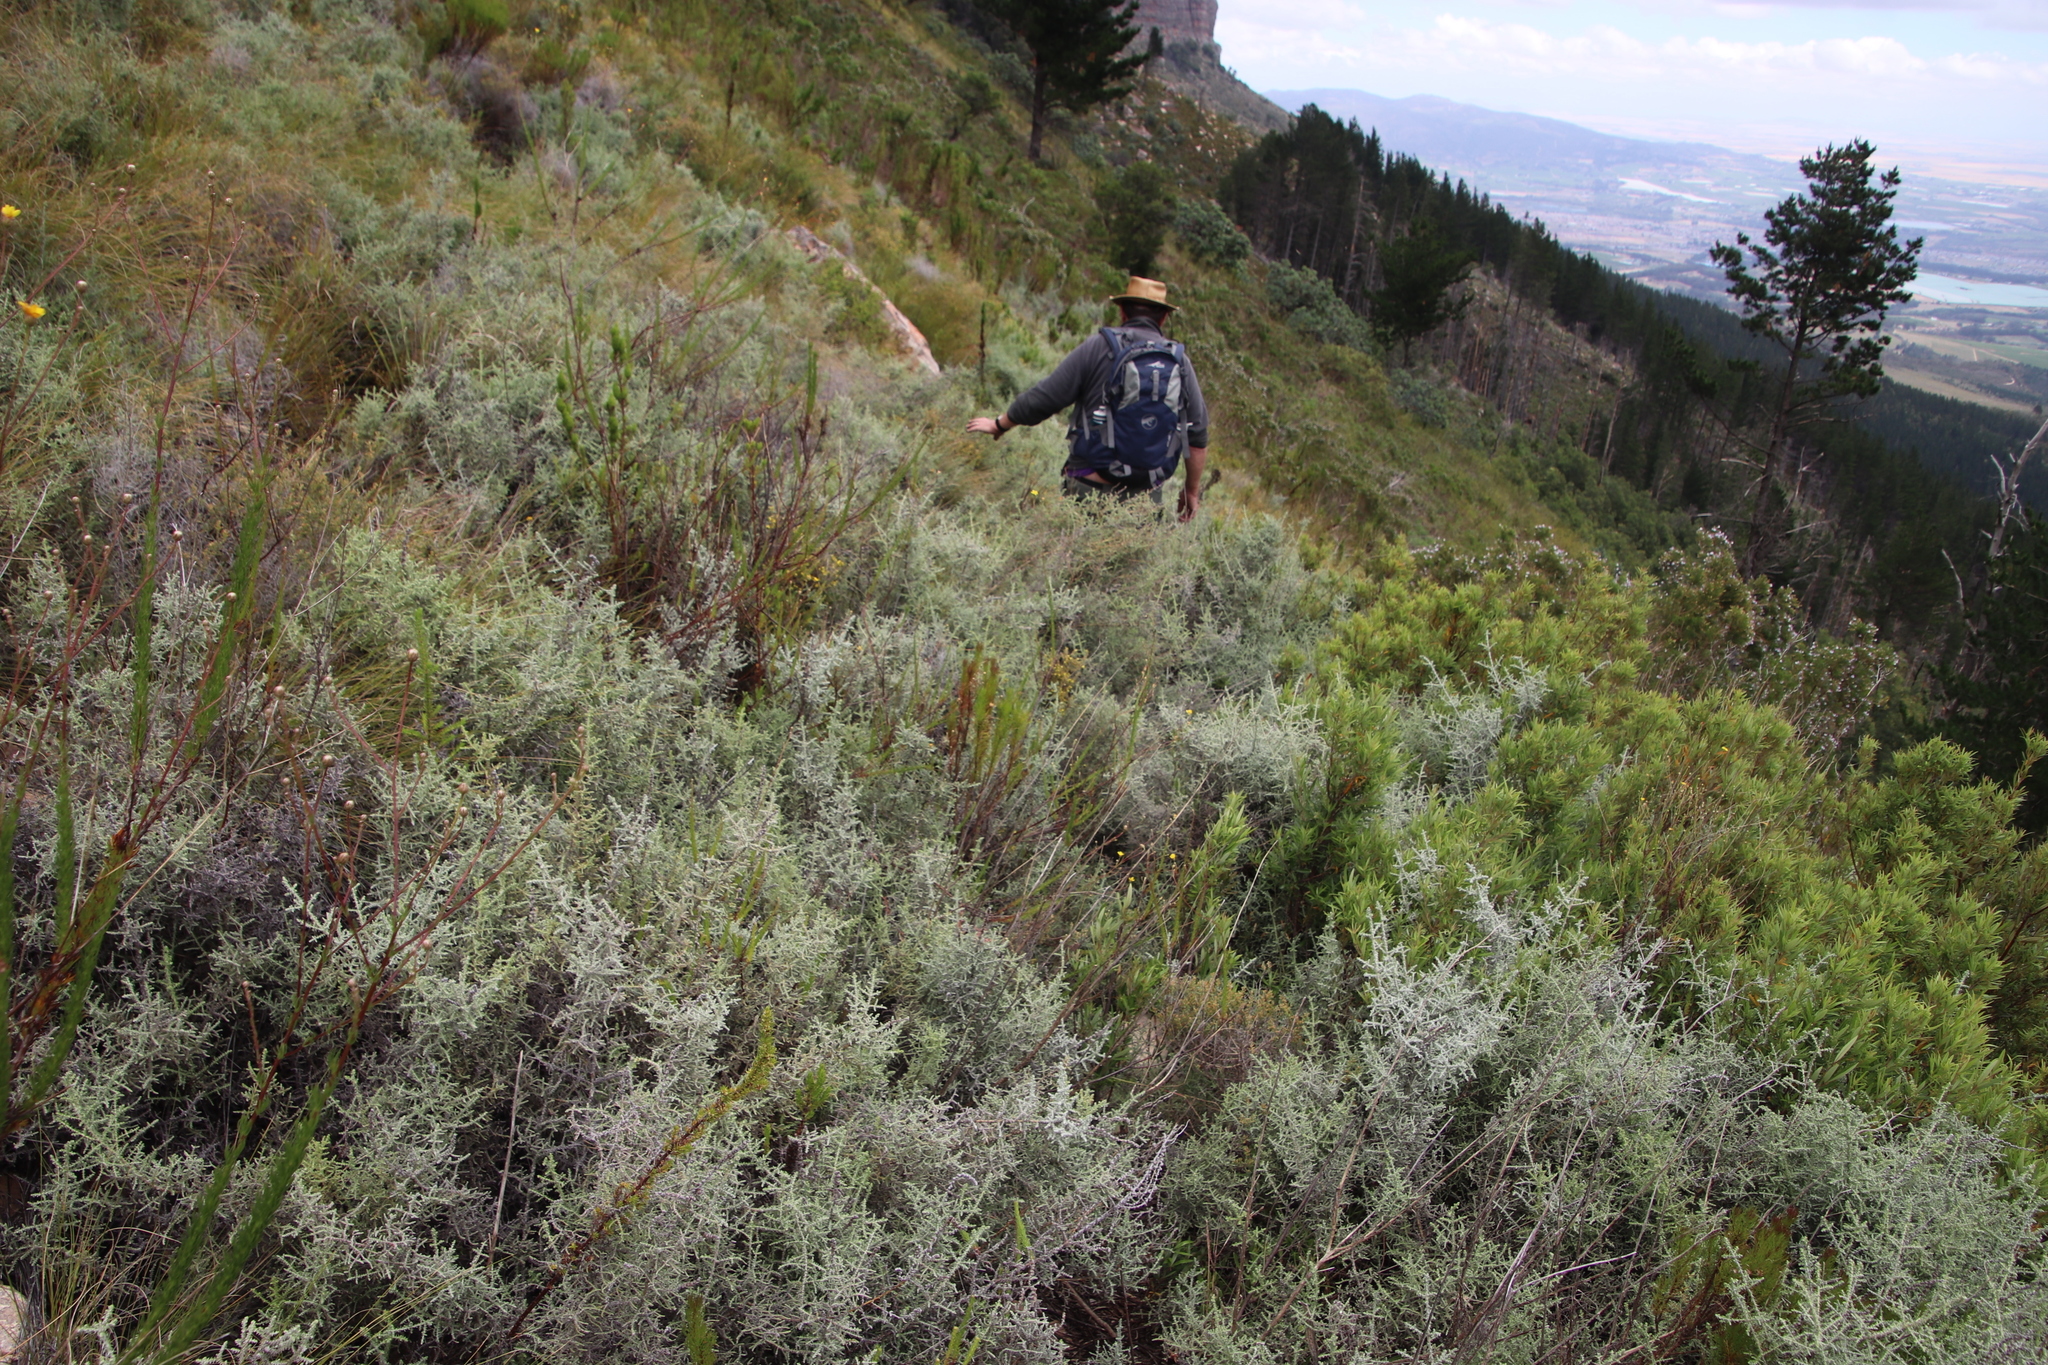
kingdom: Plantae
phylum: Tracheophyta
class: Magnoliopsida
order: Asterales
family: Asteraceae
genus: Seriphium
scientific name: Seriphium plumosum
